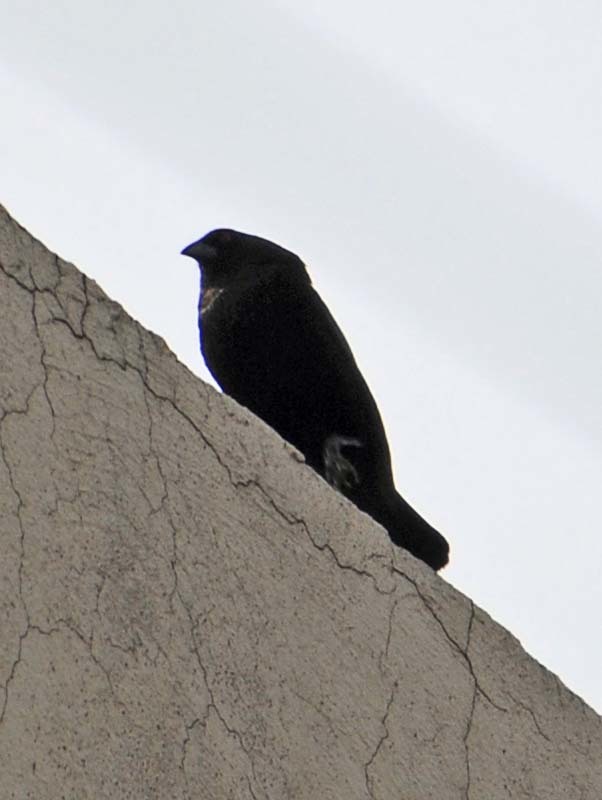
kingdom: Animalia
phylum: Chordata
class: Aves
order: Passeriformes
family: Icteridae
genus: Molothrus
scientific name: Molothrus aeneus
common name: Bronzed cowbird
